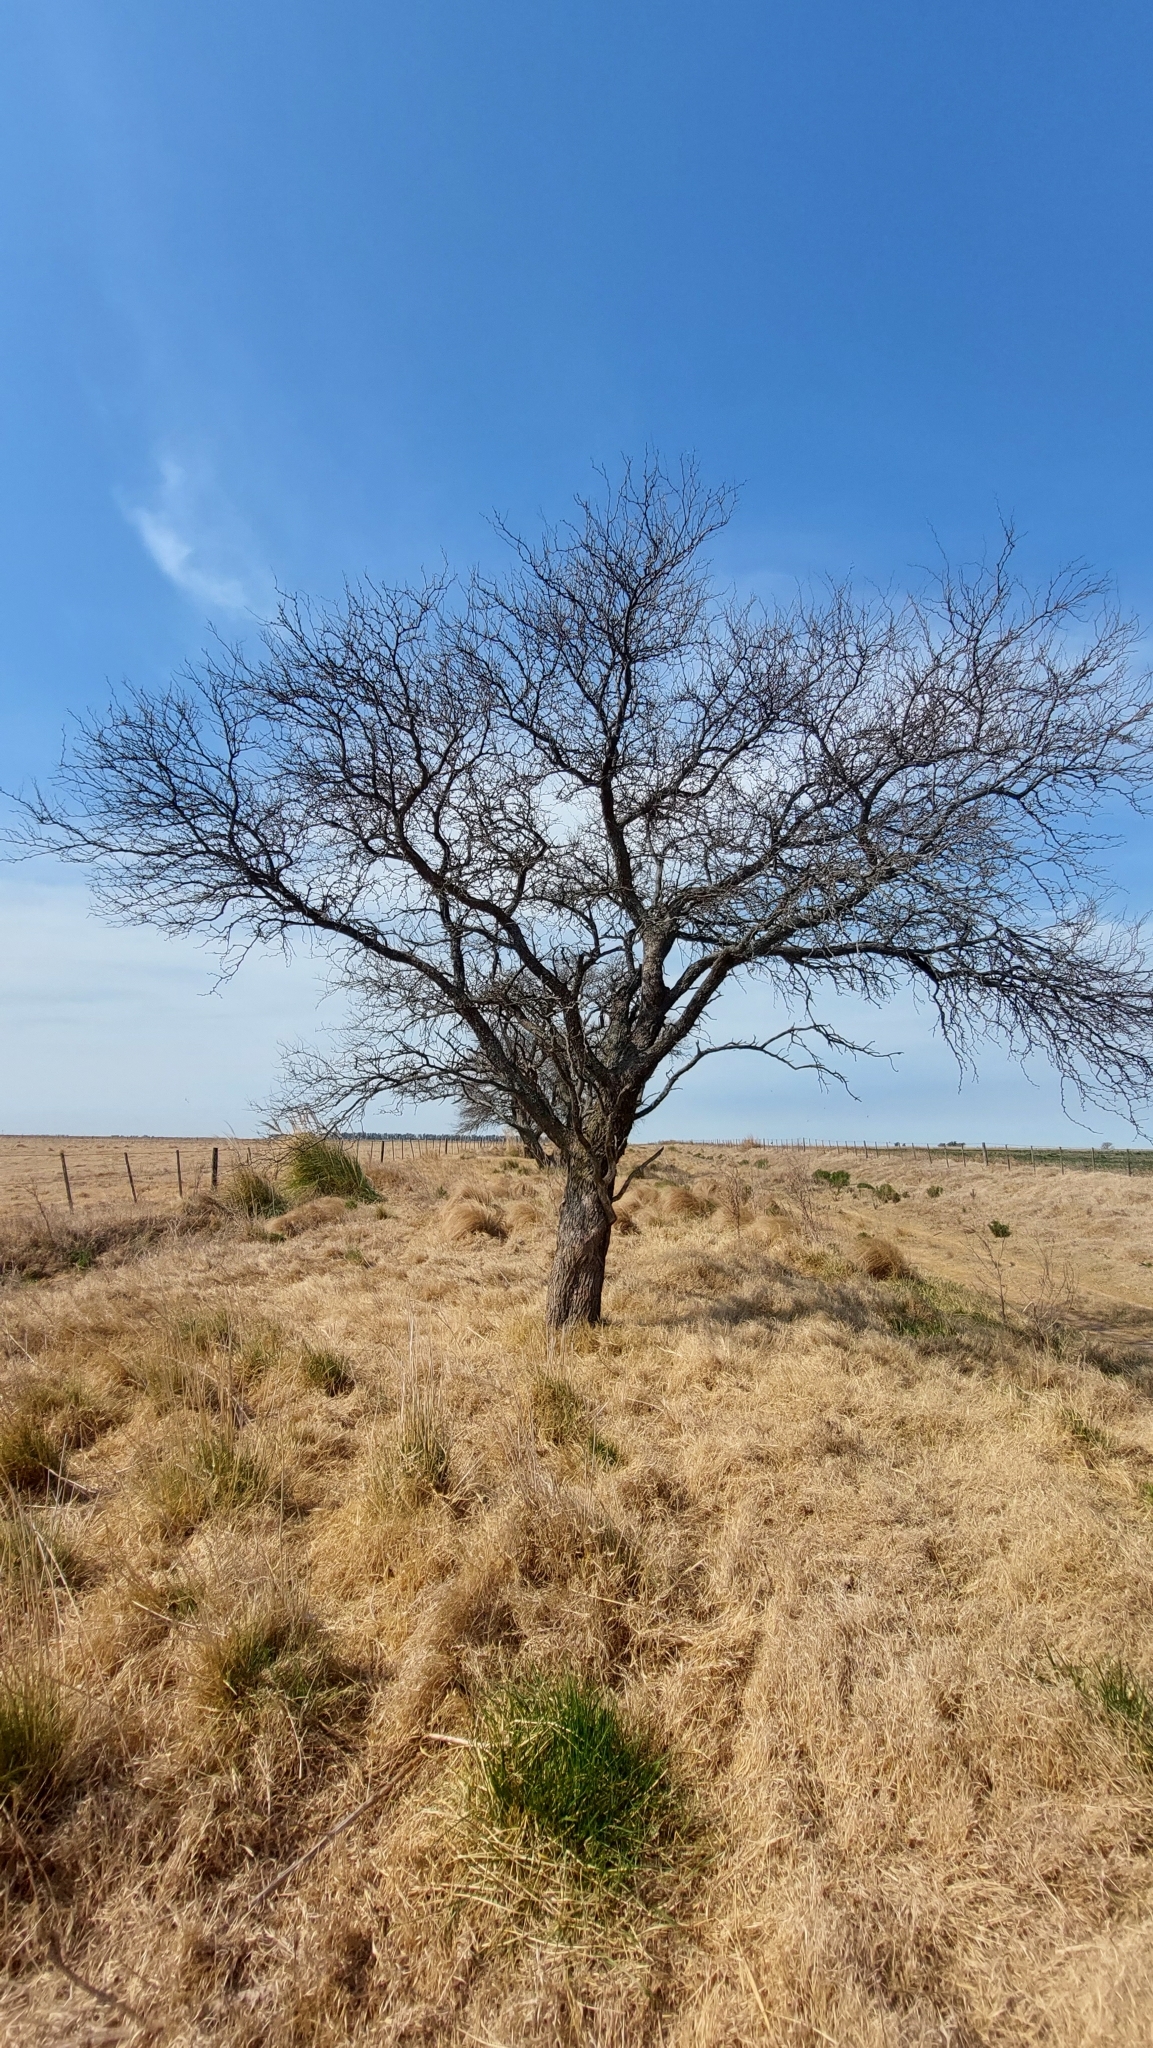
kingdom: Plantae
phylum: Tracheophyta
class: Magnoliopsida
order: Fabales
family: Fabaceae
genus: Prosopis
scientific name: Prosopis caldenia
